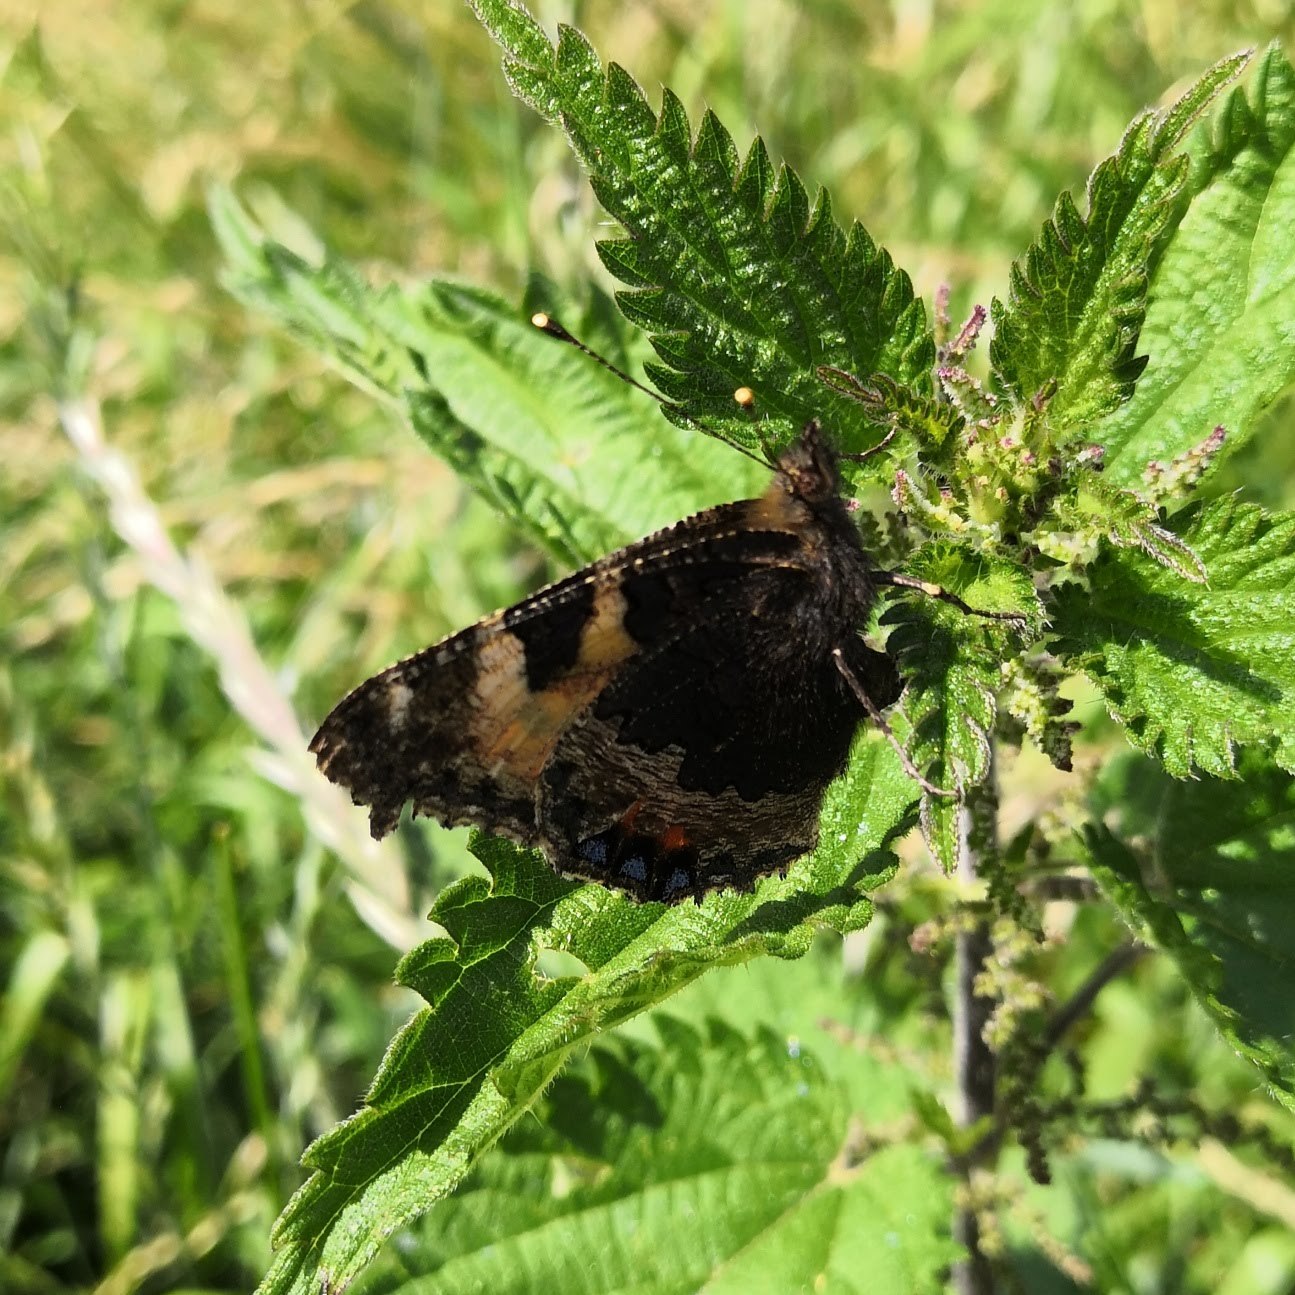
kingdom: Animalia
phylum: Arthropoda
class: Insecta
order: Lepidoptera
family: Nymphalidae
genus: Aglais
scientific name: Aglais urticae
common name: Small tortoiseshell
